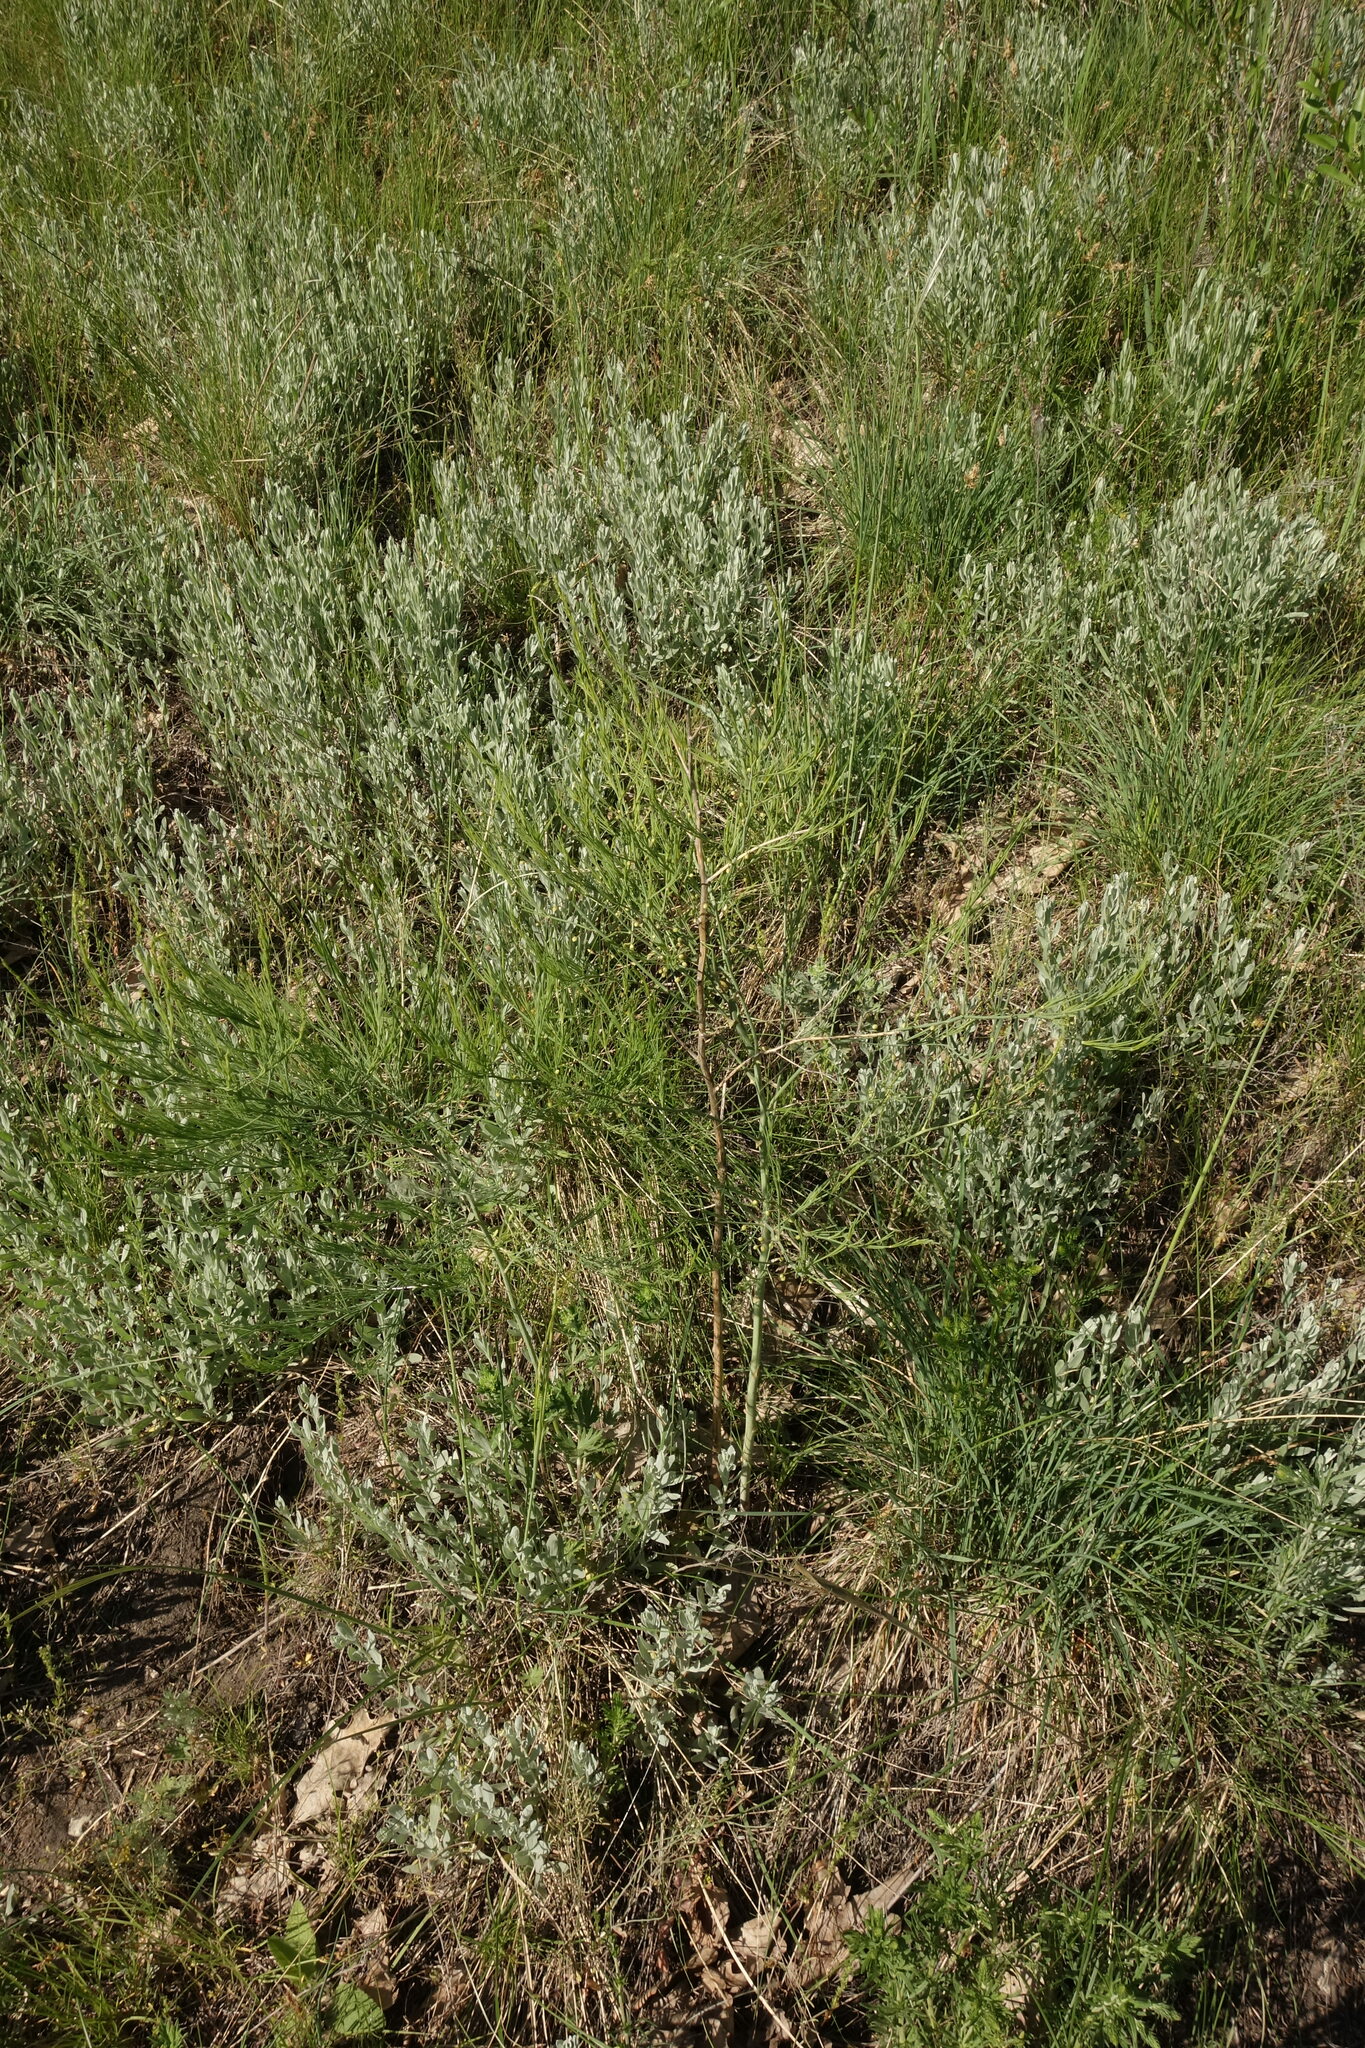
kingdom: Plantae
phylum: Tracheophyta
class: Liliopsida
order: Asparagales
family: Asparagaceae
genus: Asparagus
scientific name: Asparagus officinalis
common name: Garden asparagus
